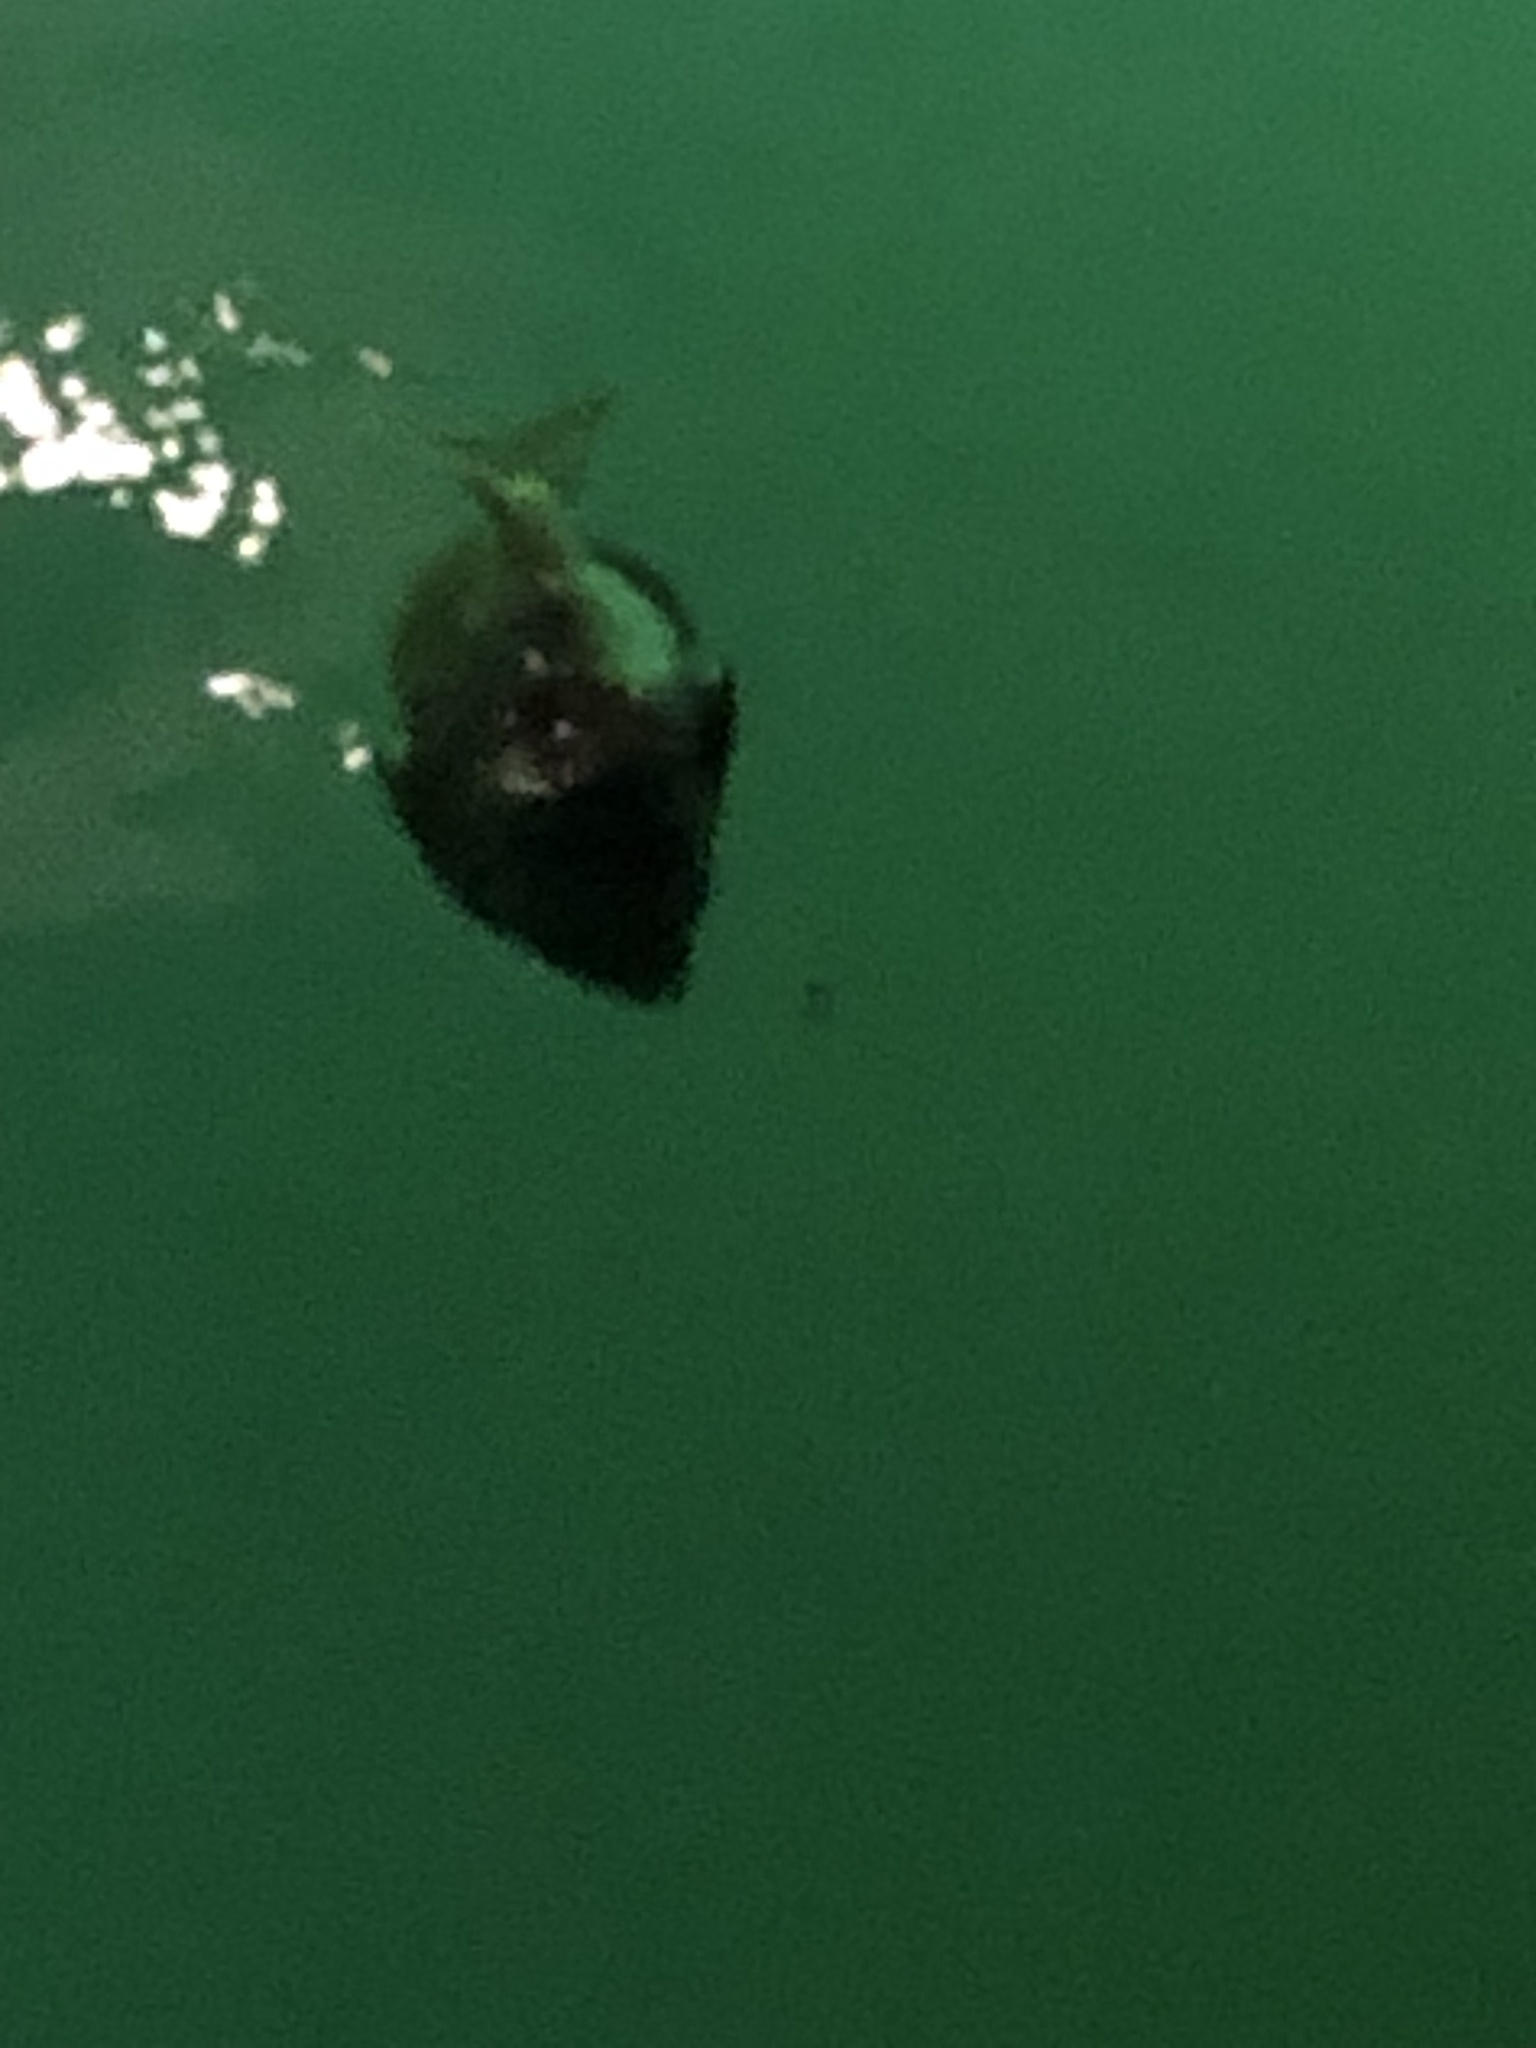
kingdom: Animalia
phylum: Chordata
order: Perciformes
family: Sparidae
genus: Stenotomus
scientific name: Stenotomus chrysops
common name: Scup
